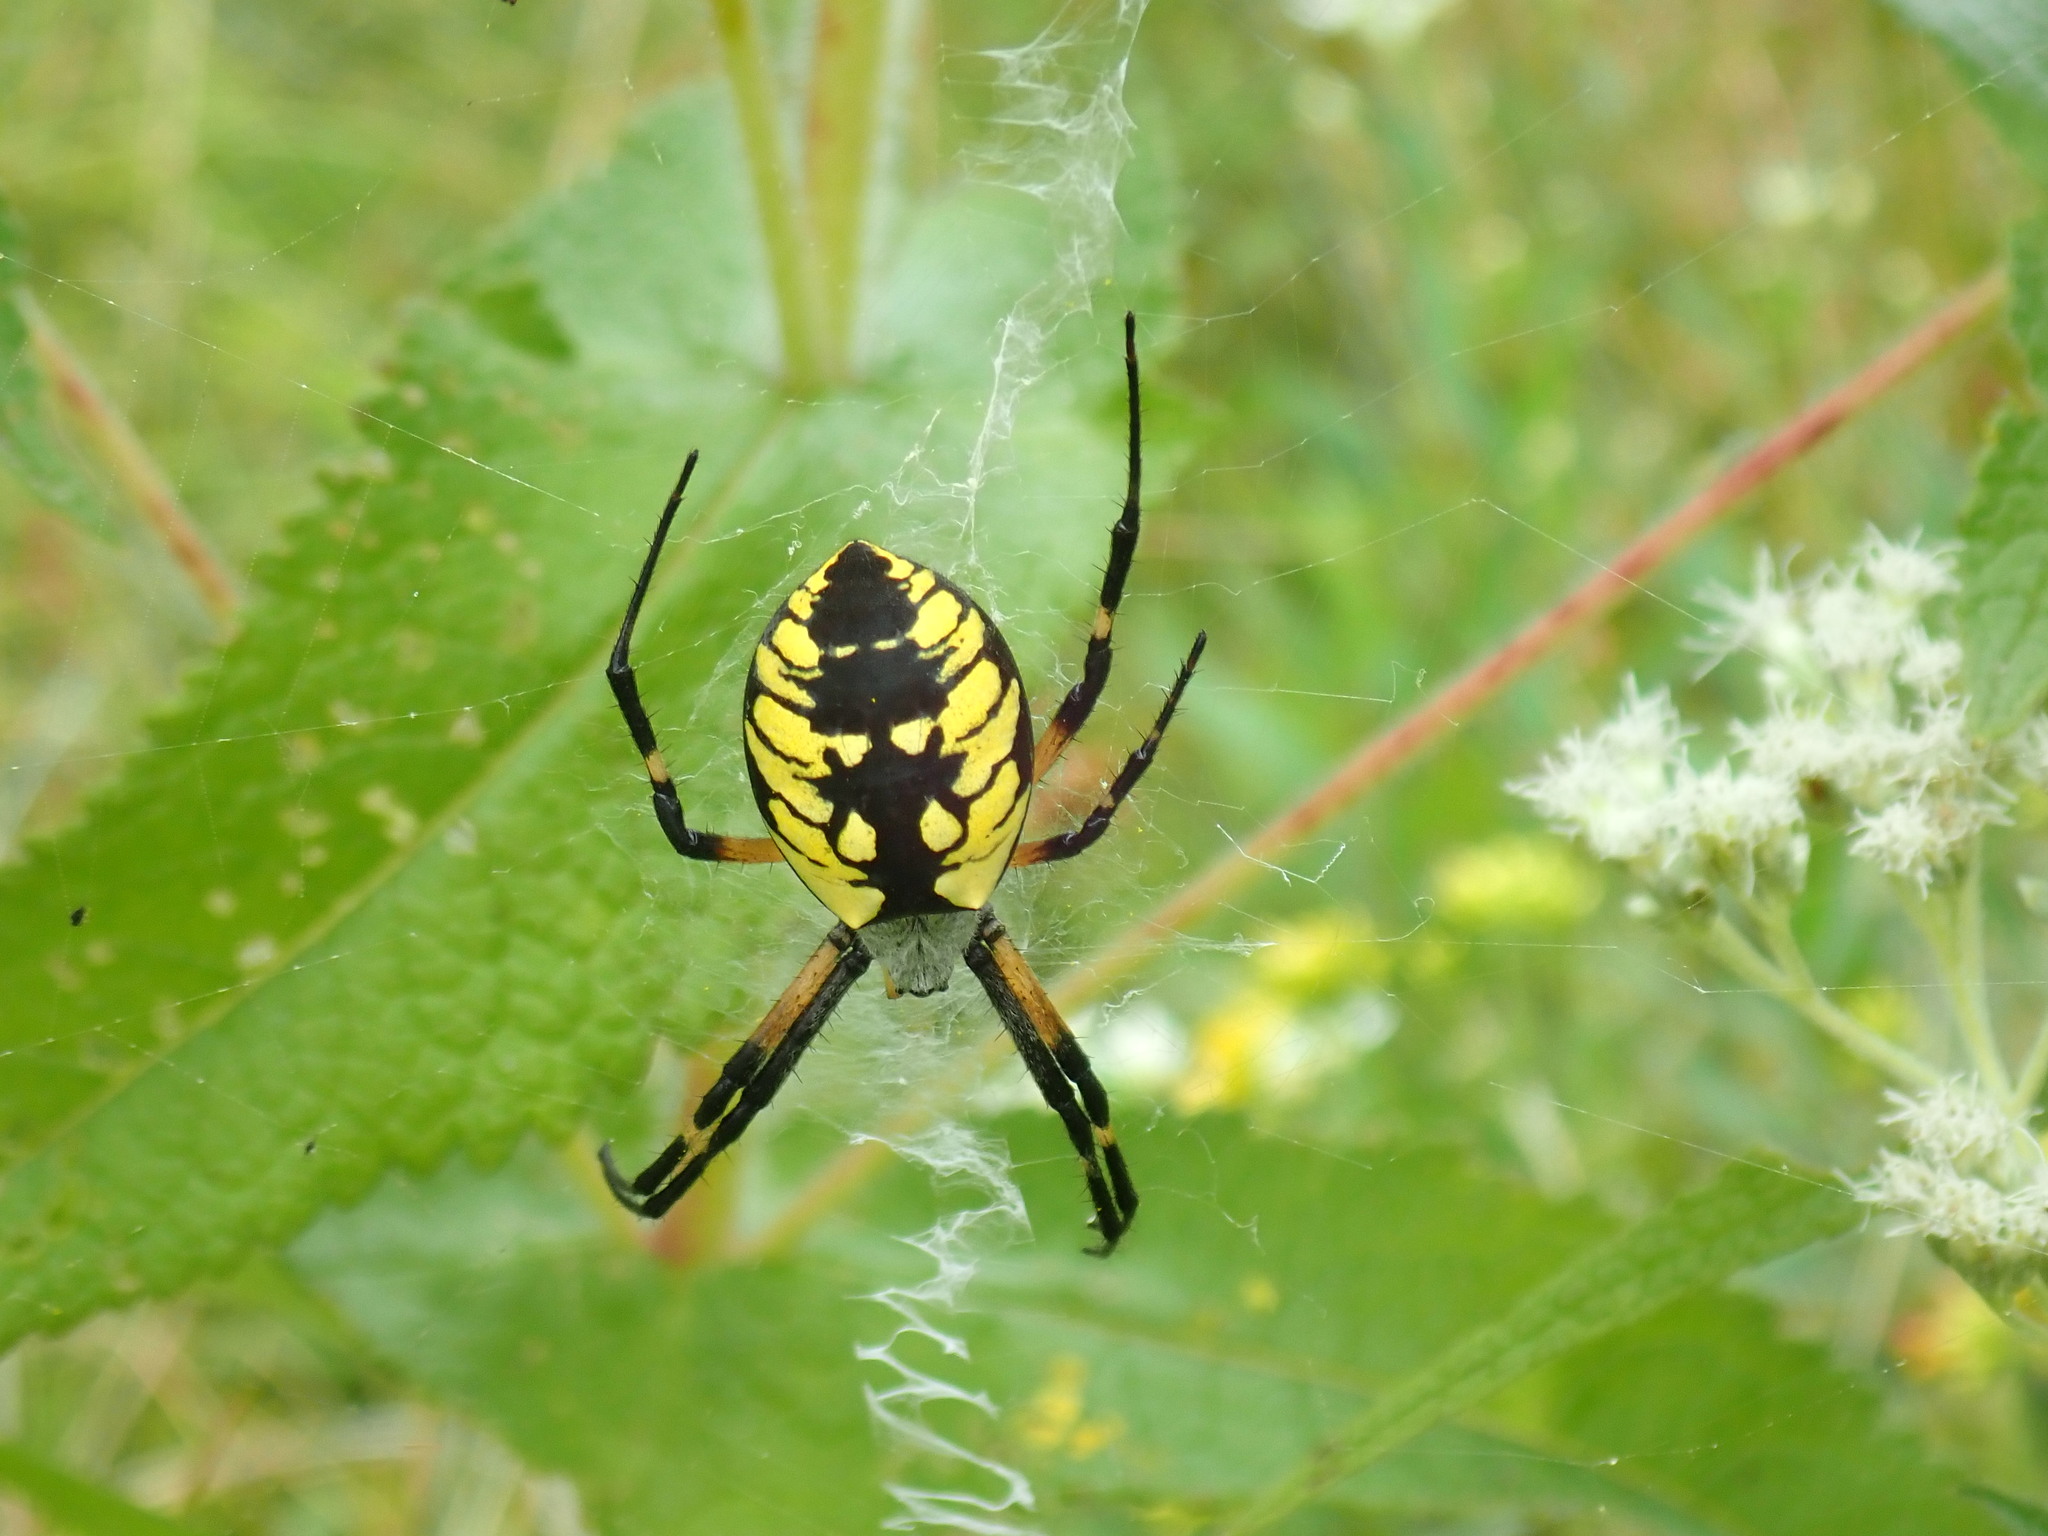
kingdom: Animalia
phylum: Arthropoda
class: Arachnida
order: Araneae
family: Araneidae
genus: Argiope
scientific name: Argiope aurantia
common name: Orb weavers
